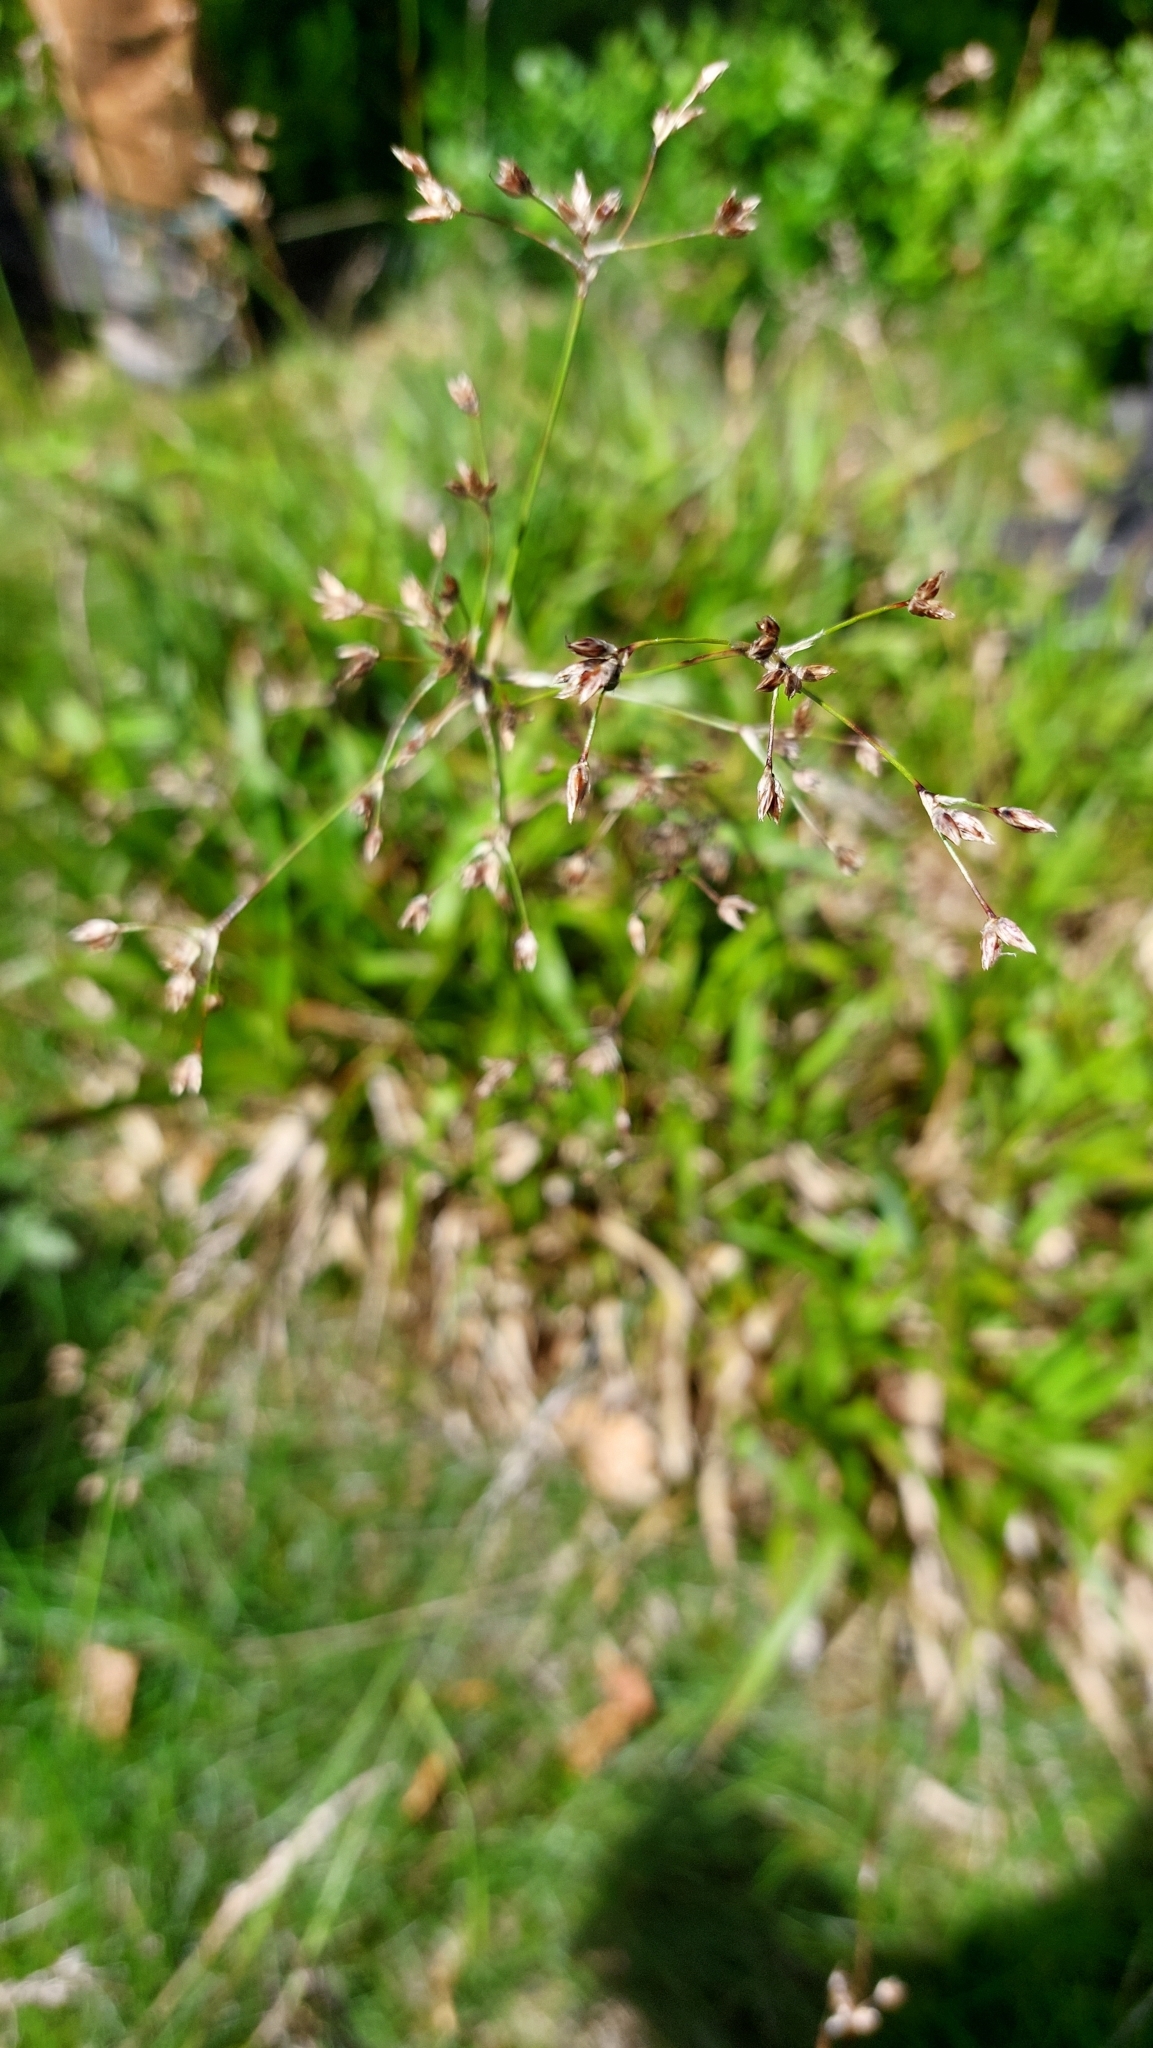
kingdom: Plantae
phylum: Tracheophyta
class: Liliopsida
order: Poales
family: Juncaceae
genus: Luzula
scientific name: Luzula sylvatica
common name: Great wood-rush
